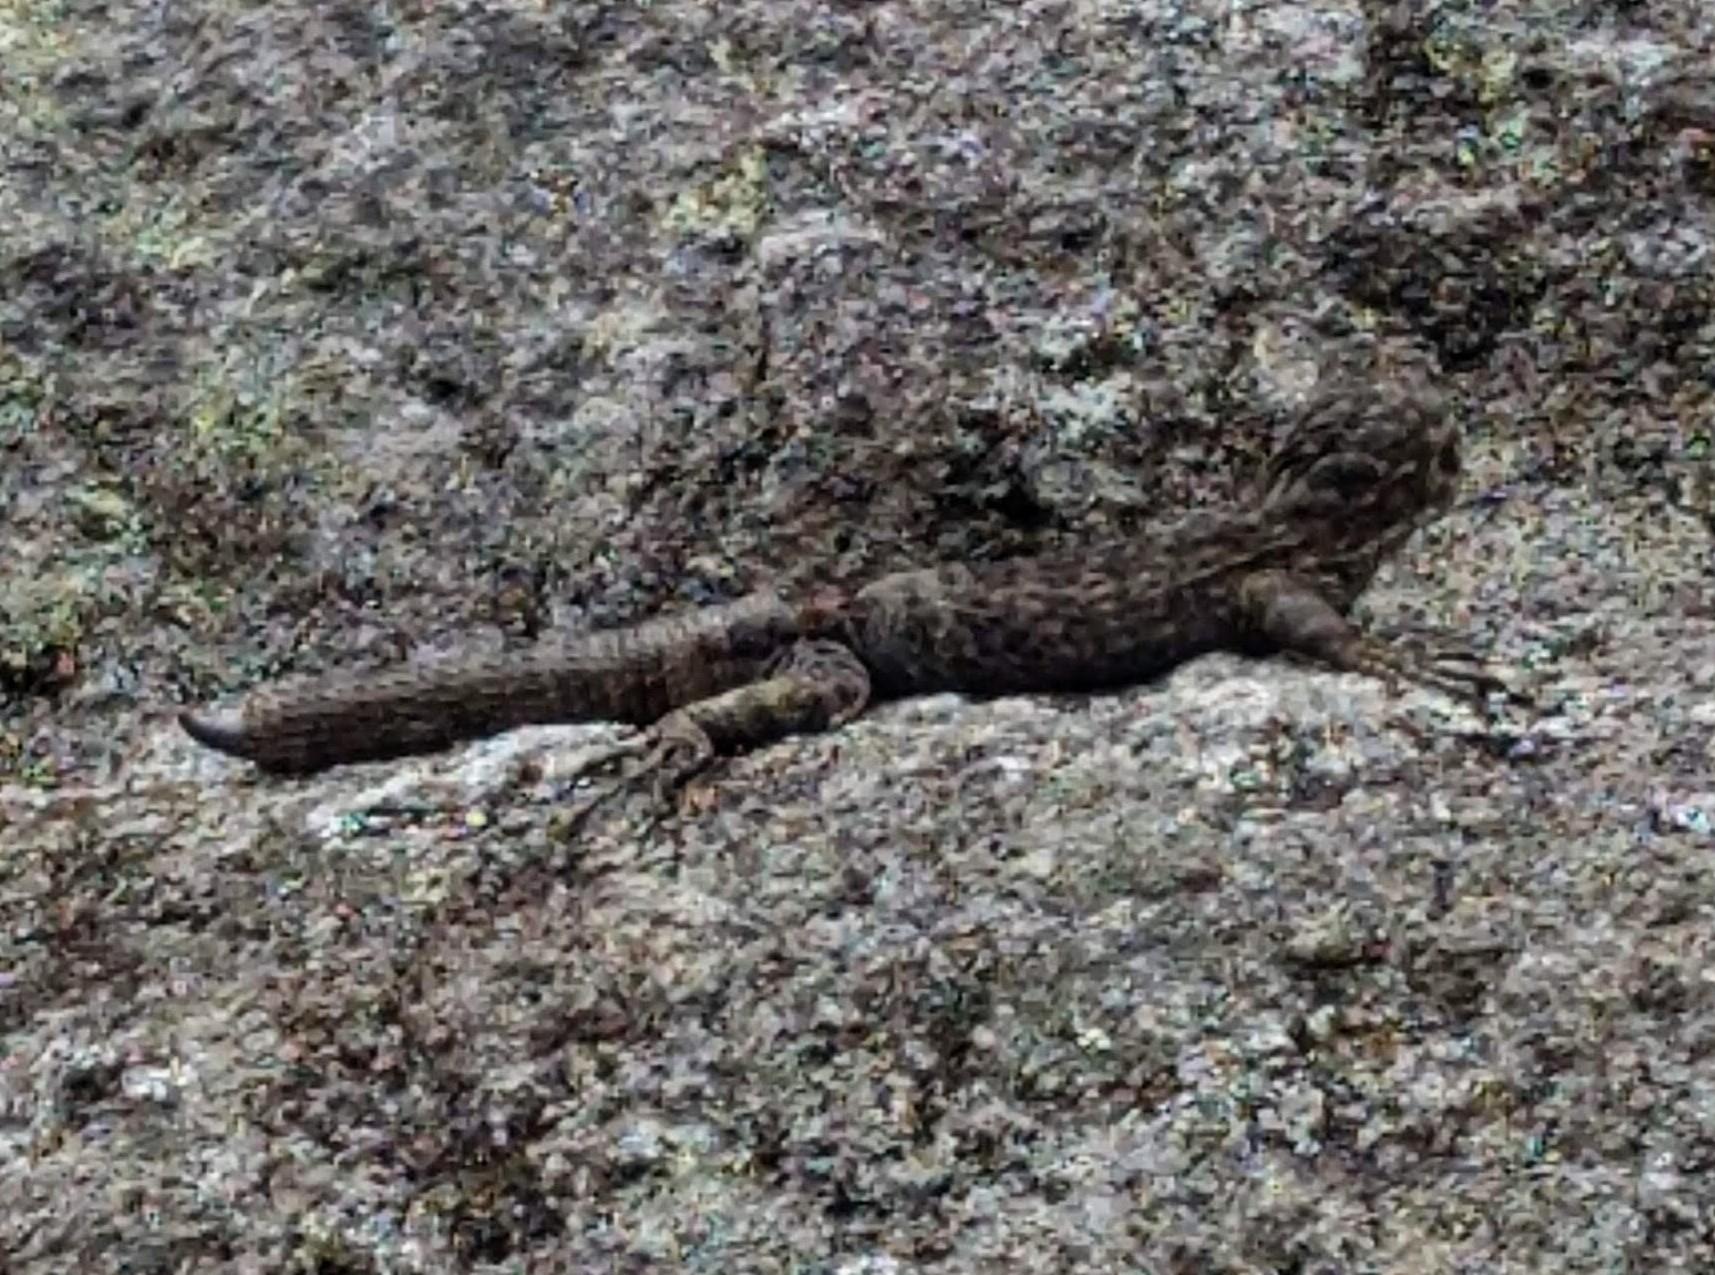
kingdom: Animalia
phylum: Chordata
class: Squamata
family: Tropiduridae
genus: Stenocercus
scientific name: Stenocercus crassicaudatus
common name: Spiny whorltail iguana
